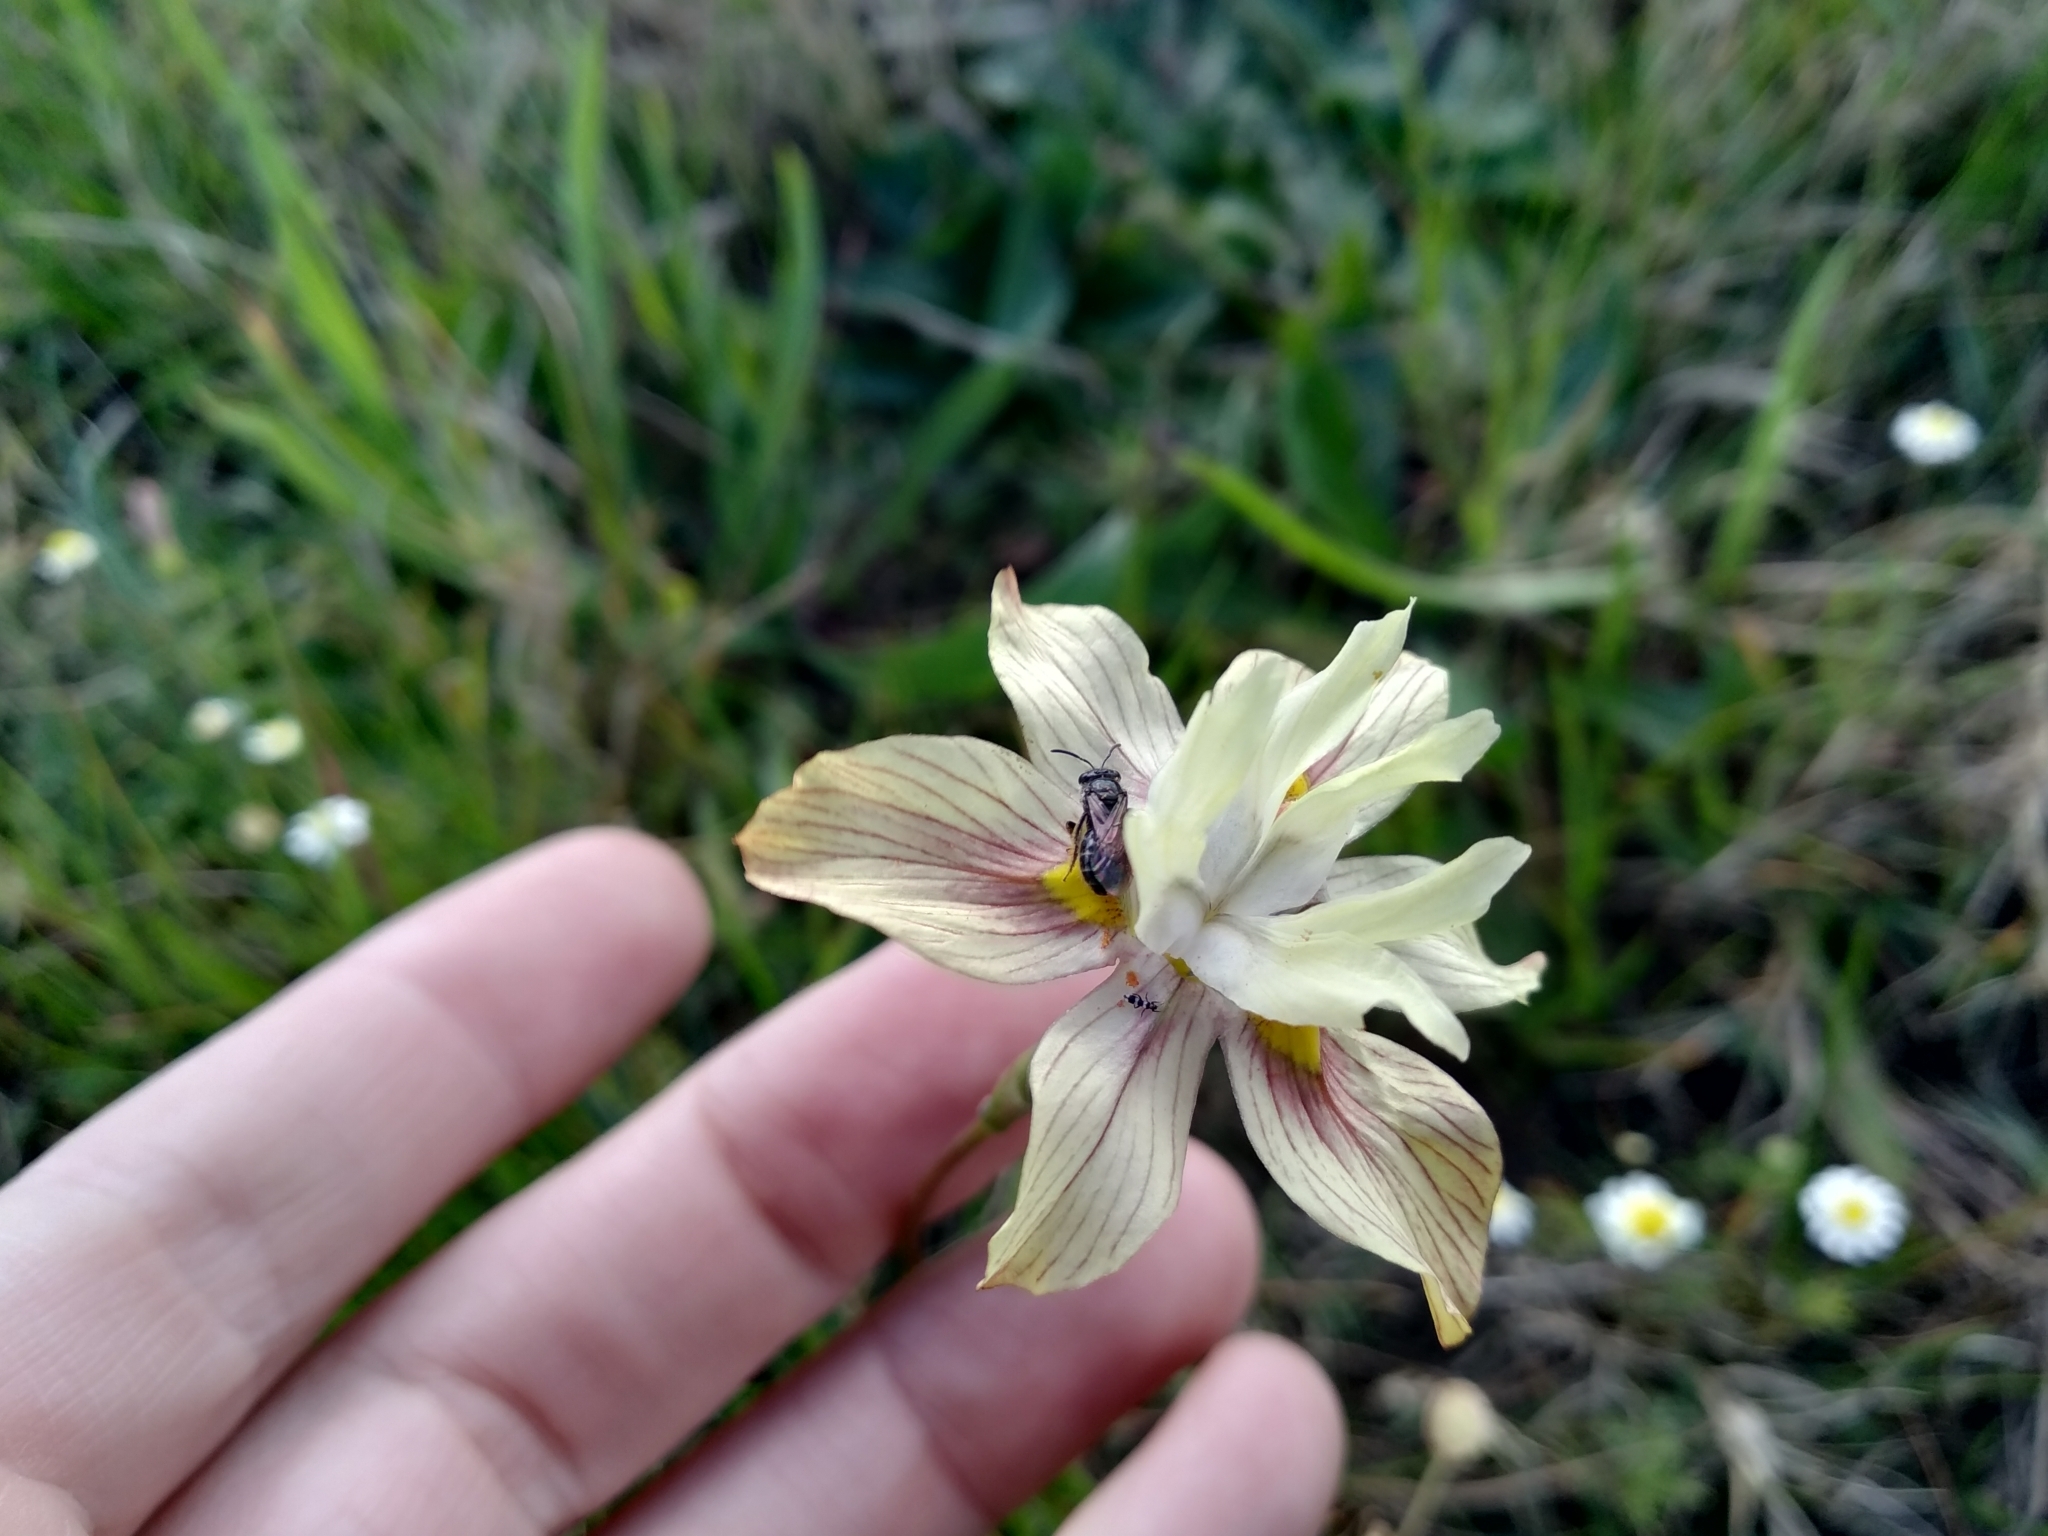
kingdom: Plantae
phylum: Tracheophyta
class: Liliopsida
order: Asparagales
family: Iridaceae
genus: Moraea
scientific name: Moraea gawleri
